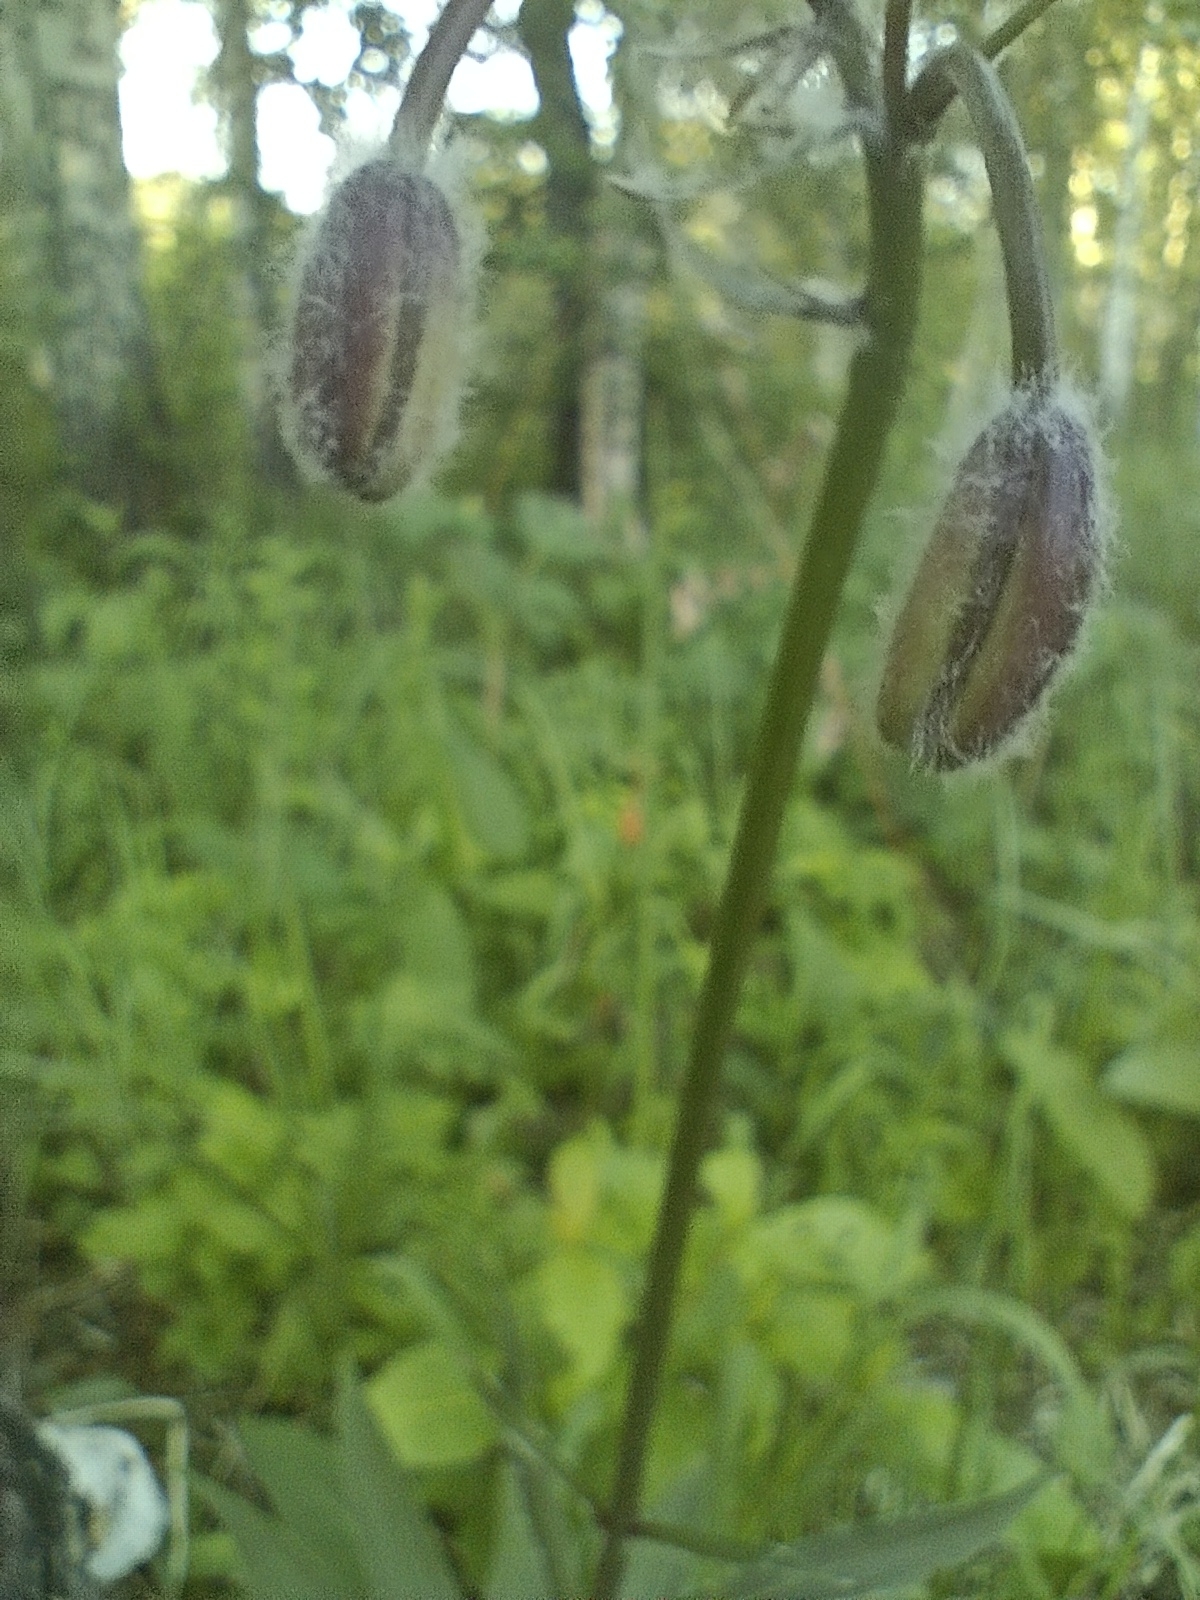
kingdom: Plantae
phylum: Tracheophyta
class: Liliopsida
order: Liliales
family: Liliaceae
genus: Lilium
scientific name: Lilium martagon
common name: Martagon lily
